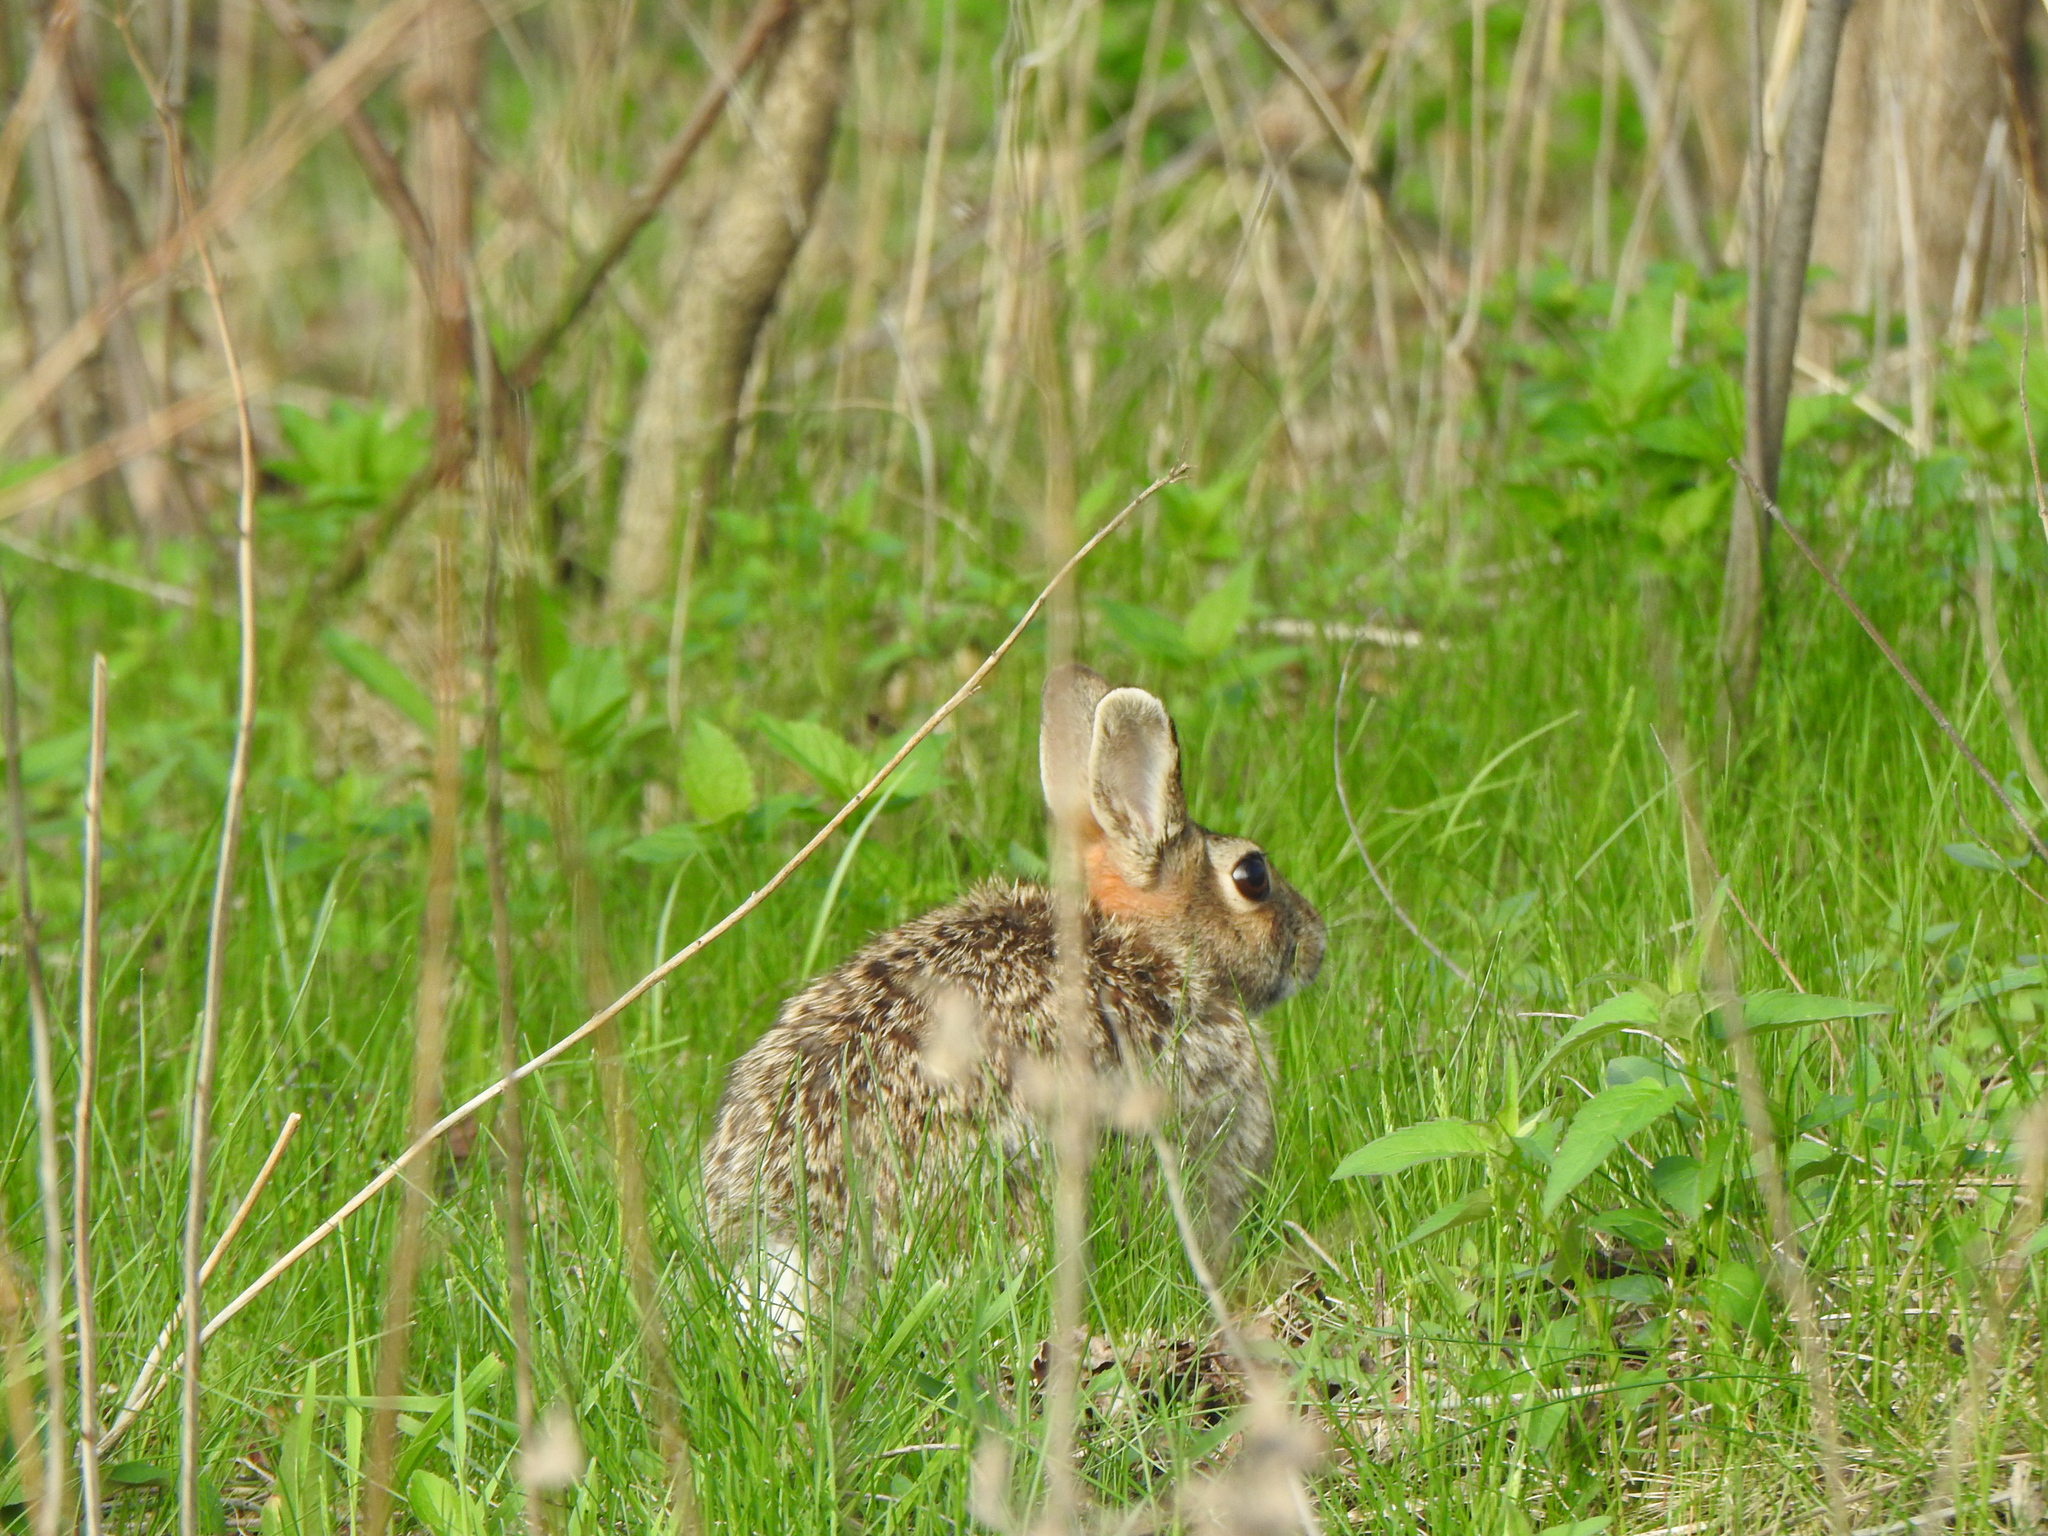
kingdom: Animalia
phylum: Chordata
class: Mammalia
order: Lagomorpha
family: Leporidae
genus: Sylvilagus
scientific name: Sylvilagus floridanus
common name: Eastern cottontail
